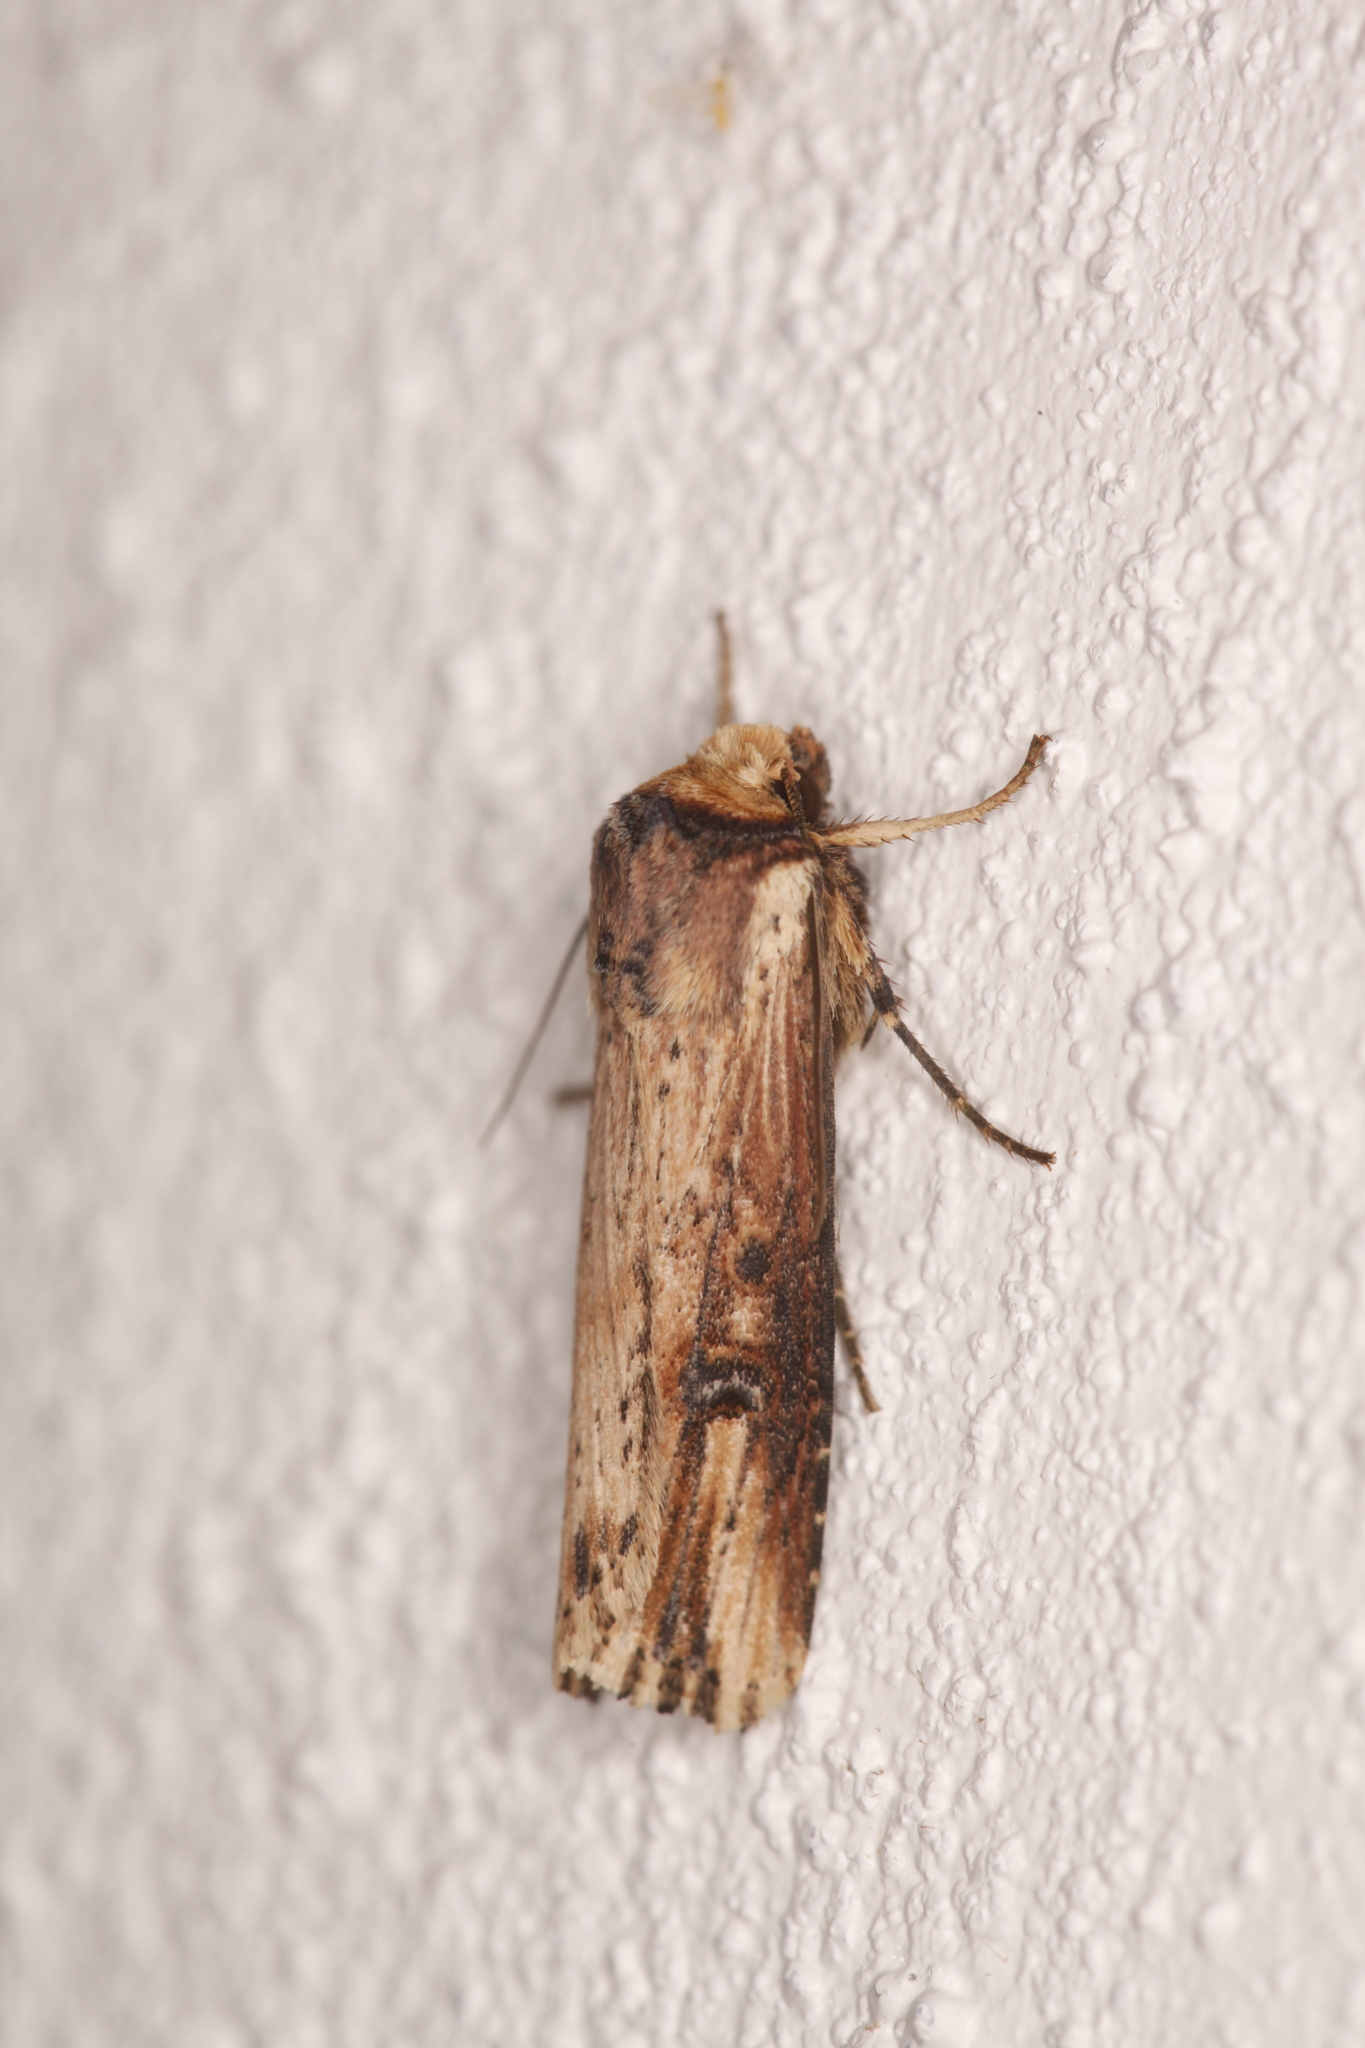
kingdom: Animalia
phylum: Arthropoda
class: Insecta
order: Lepidoptera
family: Noctuidae
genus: Axylia
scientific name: Axylia putris
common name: Flame
